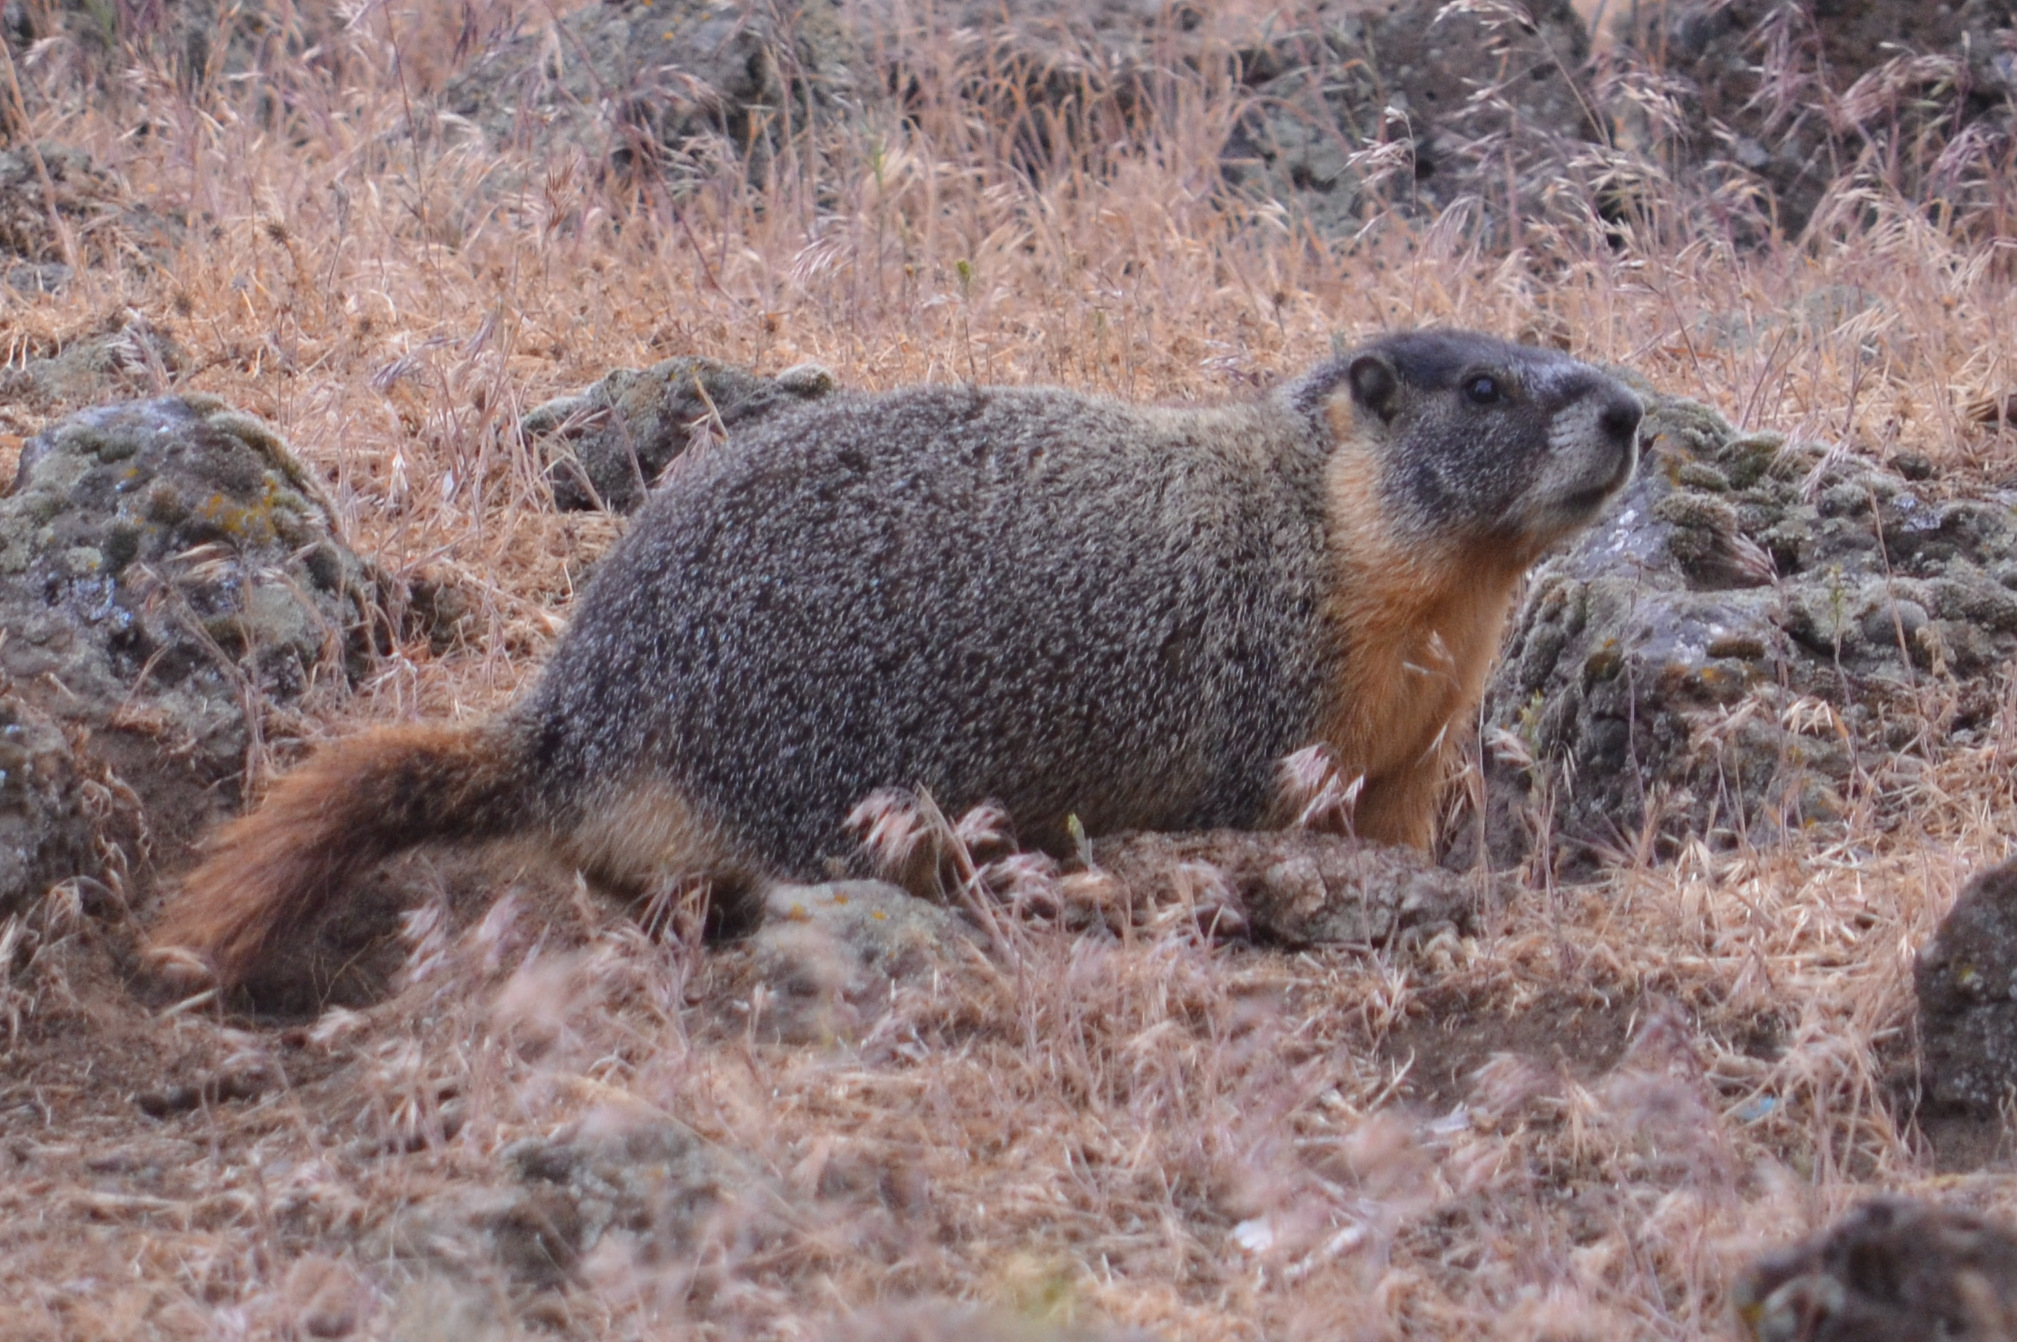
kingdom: Animalia
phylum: Chordata
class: Mammalia
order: Rodentia
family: Sciuridae
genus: Marmota
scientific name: Marmota flaviventris
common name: Yellow-bellied marmot
